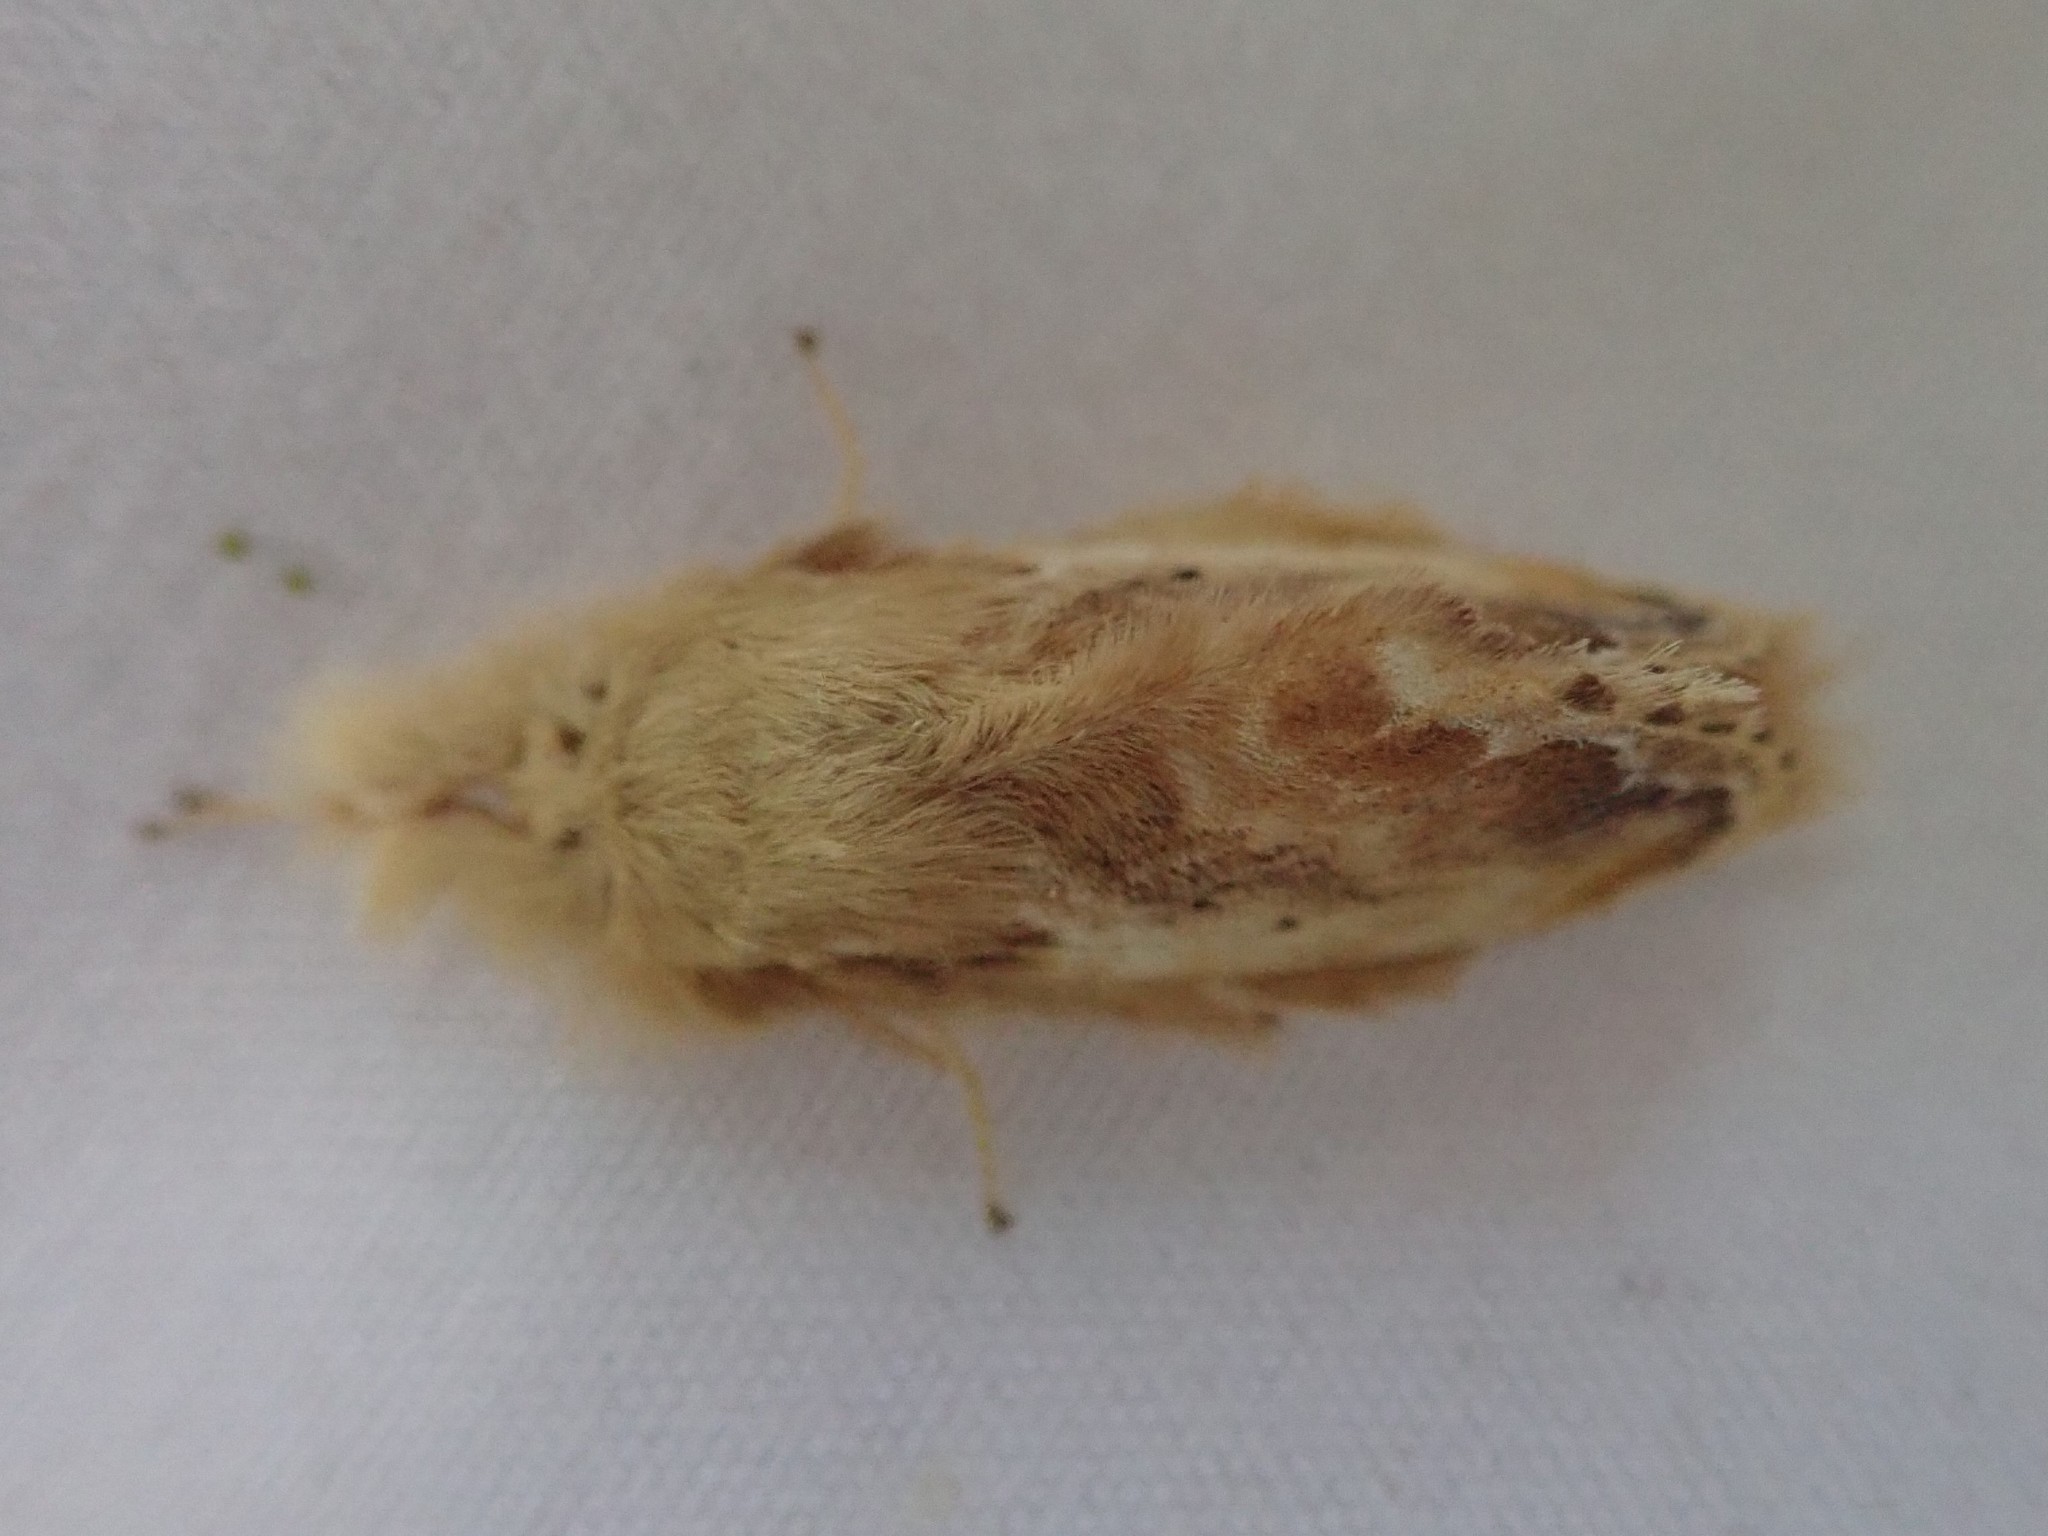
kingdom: Animalia
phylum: Arthropoda
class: Insecta
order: Lepidoptera
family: Lasiocampidae
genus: Euglyphis
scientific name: Euglyphis asapha
